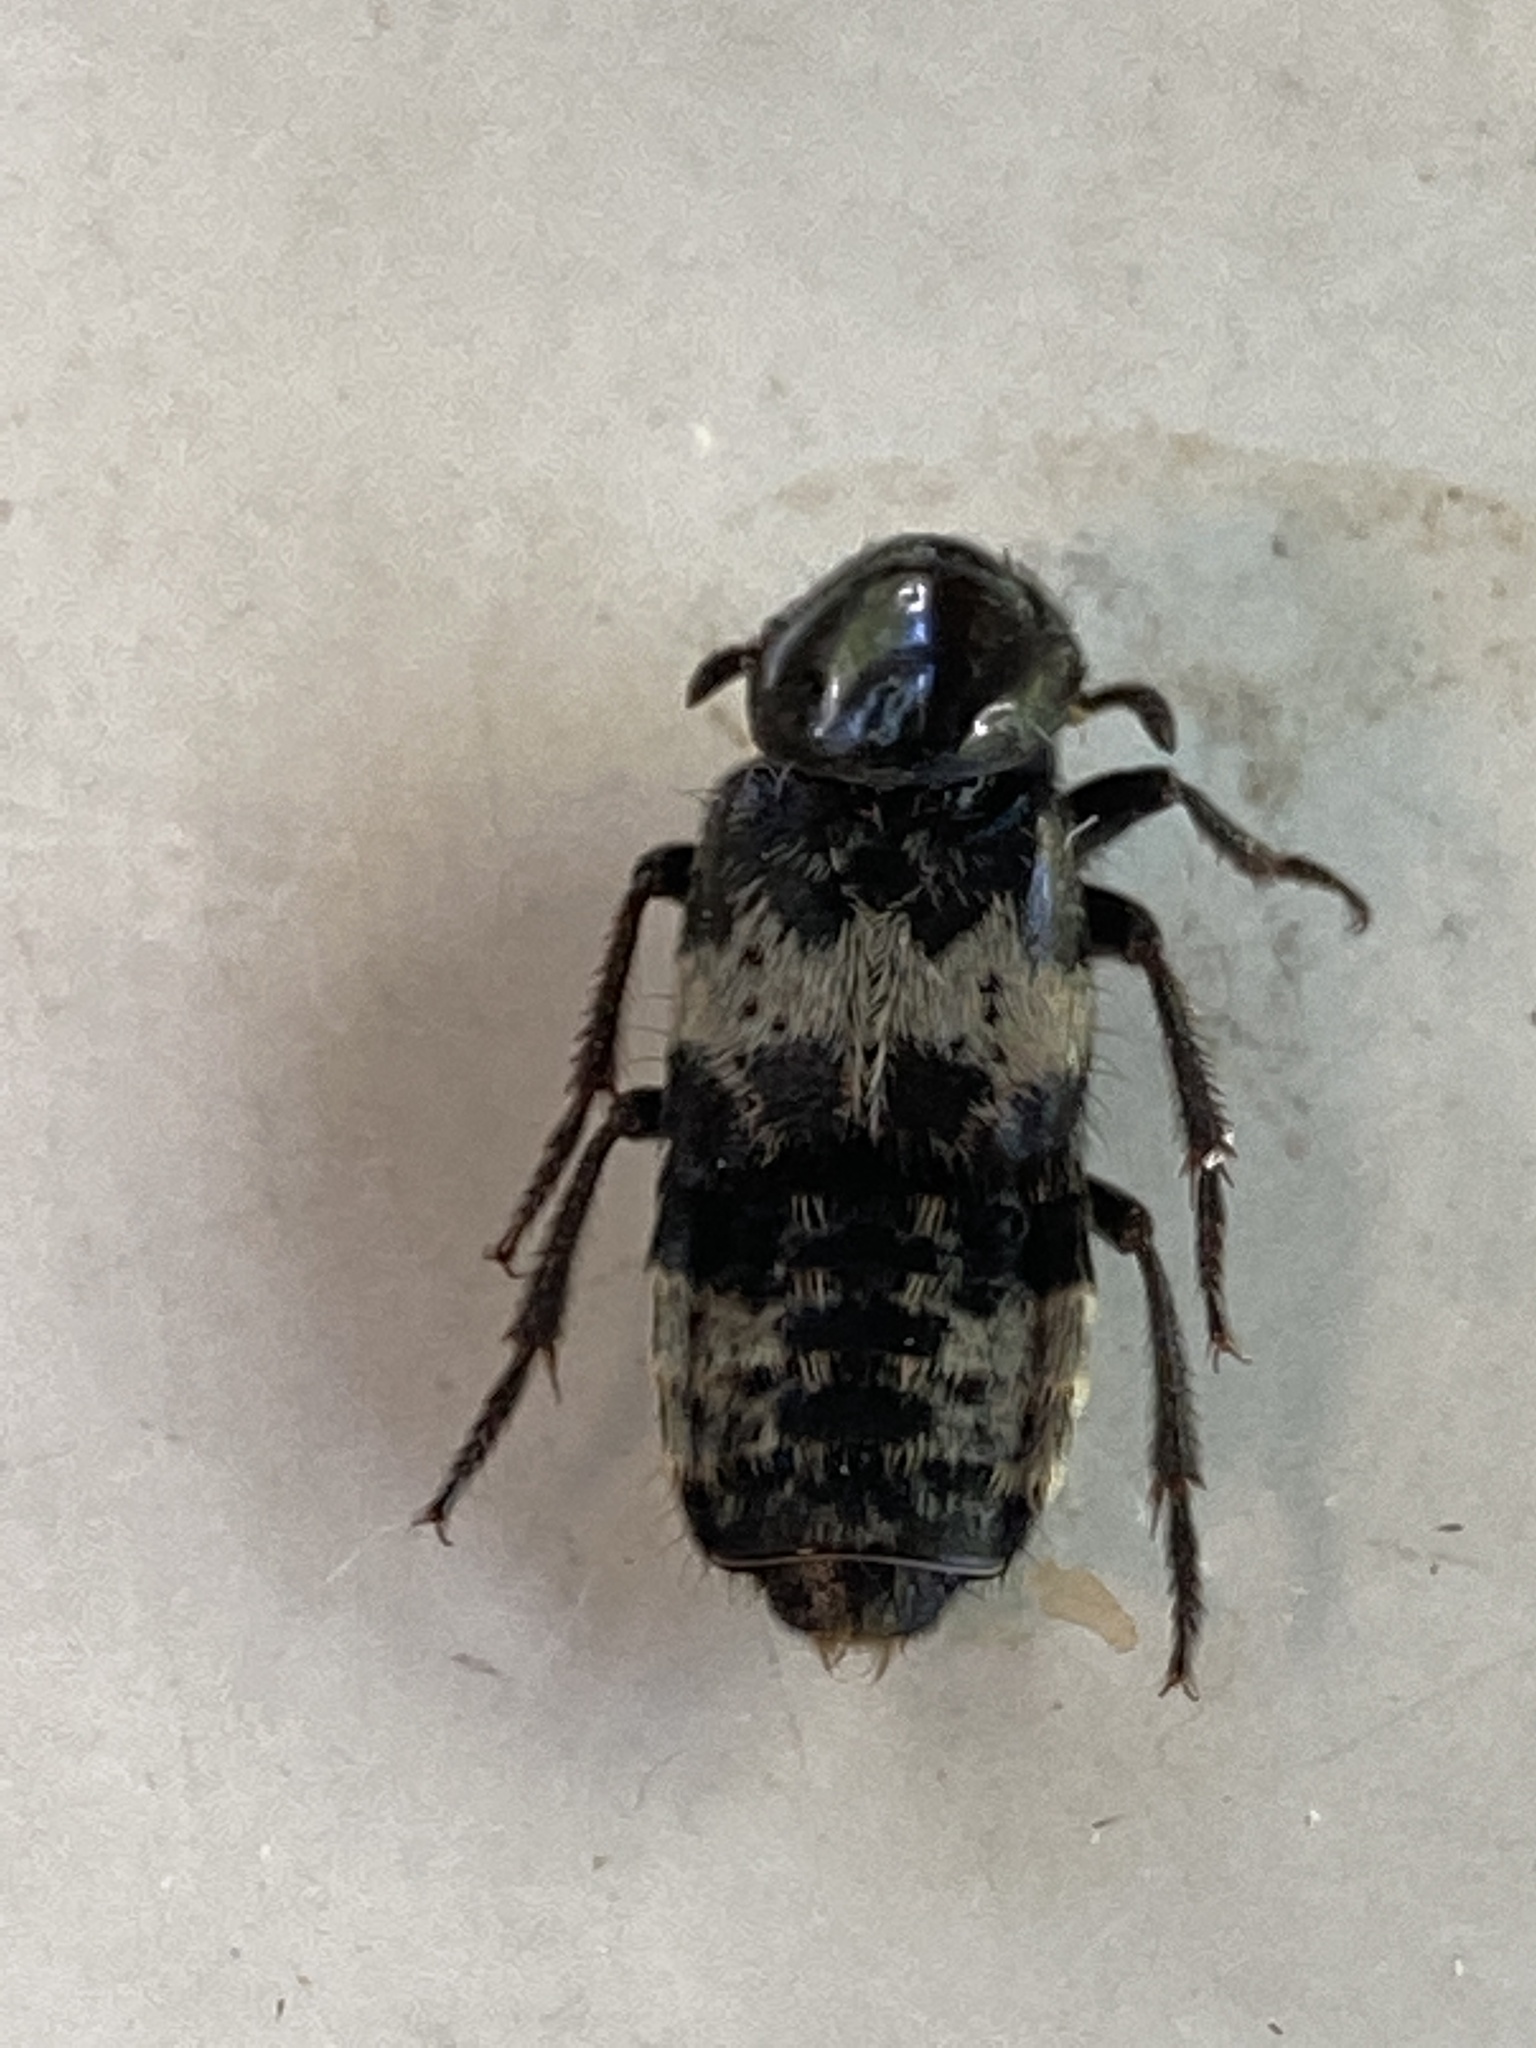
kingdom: Animalia
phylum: Arthropoda
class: Insecta
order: Coleoptera
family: Staphylinidae
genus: Creophilus
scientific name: Creophilus maxillosus
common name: Hairy rove beetle
